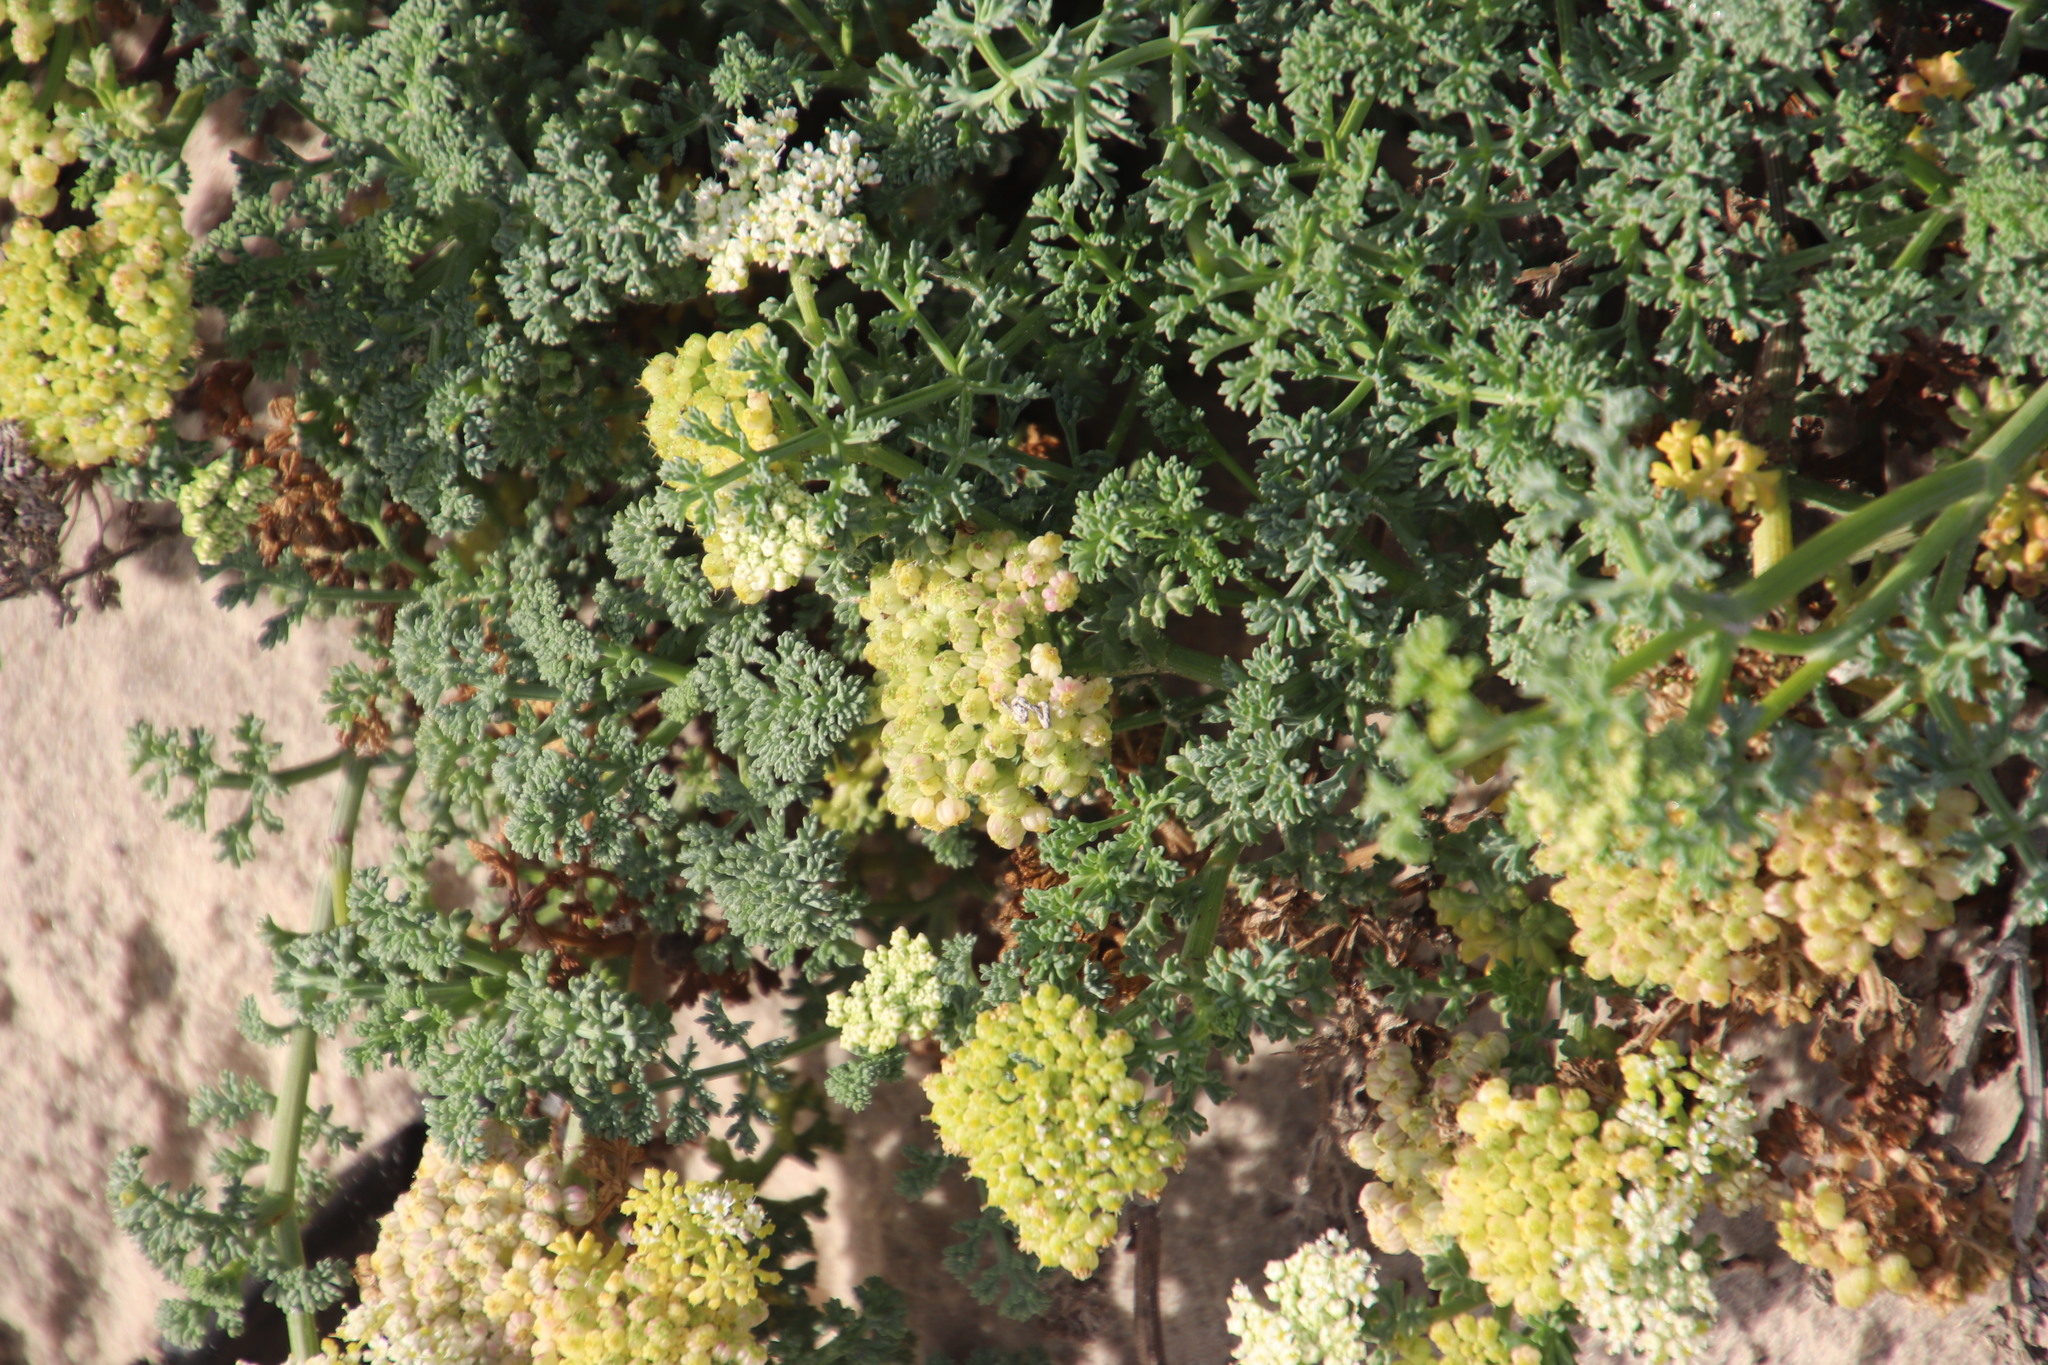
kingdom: Plantae
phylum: Tracheophyta
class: Magnoliopsida
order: Apiales
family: Apiaceae
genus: Dasispermum
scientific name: Dasispermum suffruticosum
